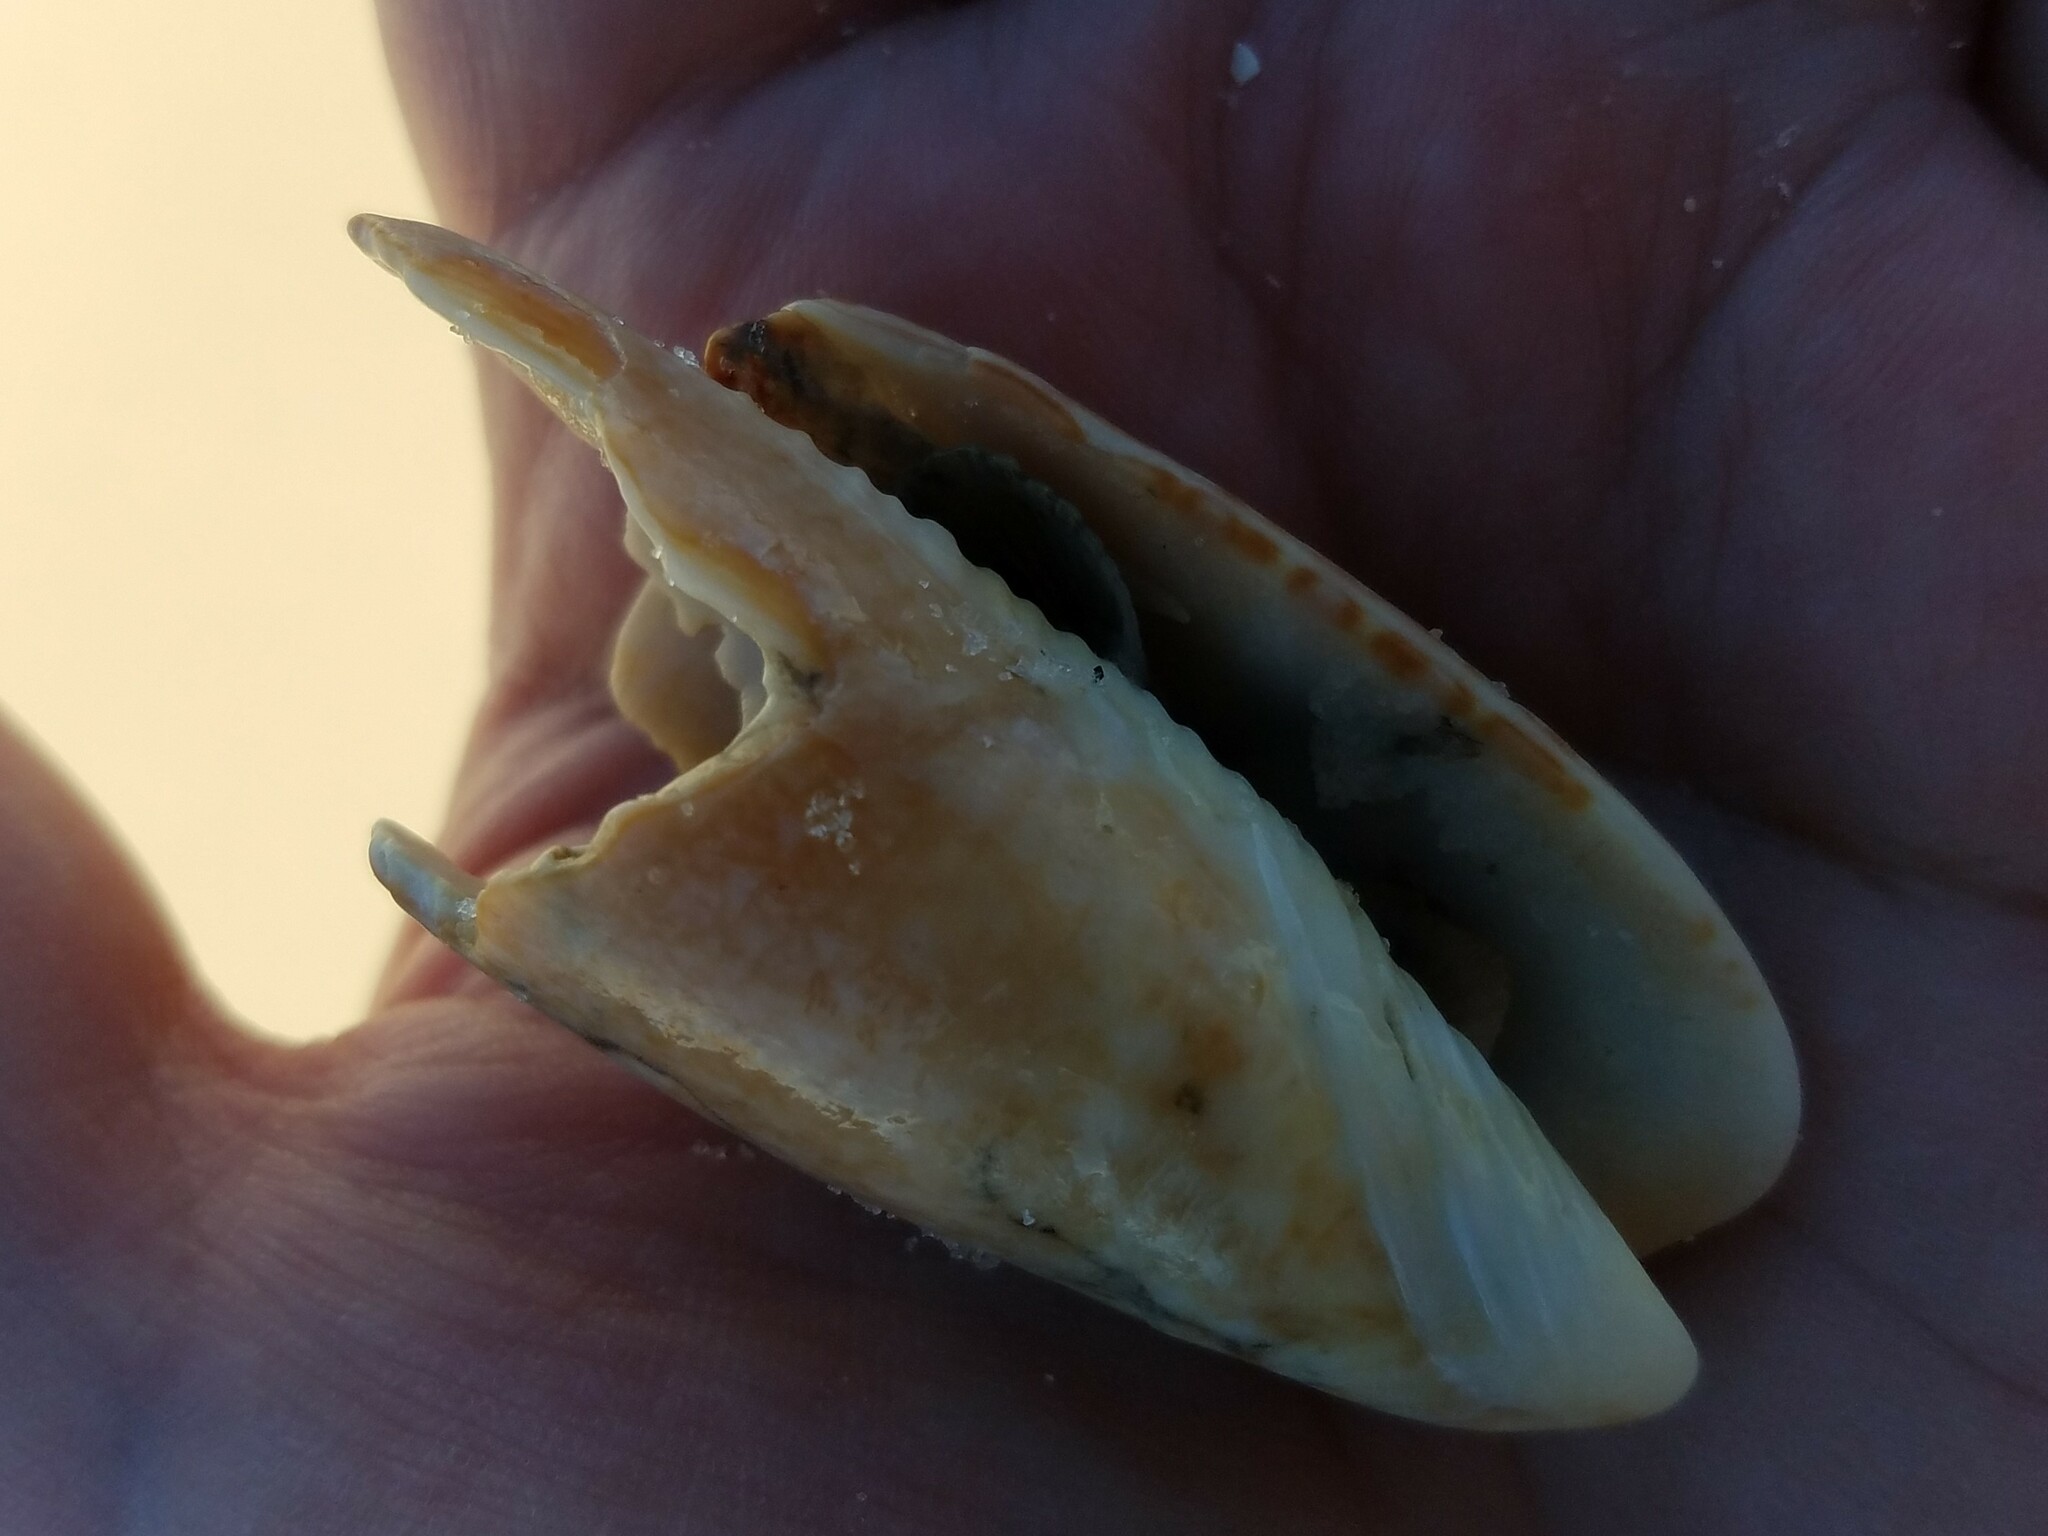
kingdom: Animalia
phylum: Mollusca
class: Gastropoda
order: Neogastropoda
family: Olividae
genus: Oliva
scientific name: Oliva sayana
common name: Lettered olive
